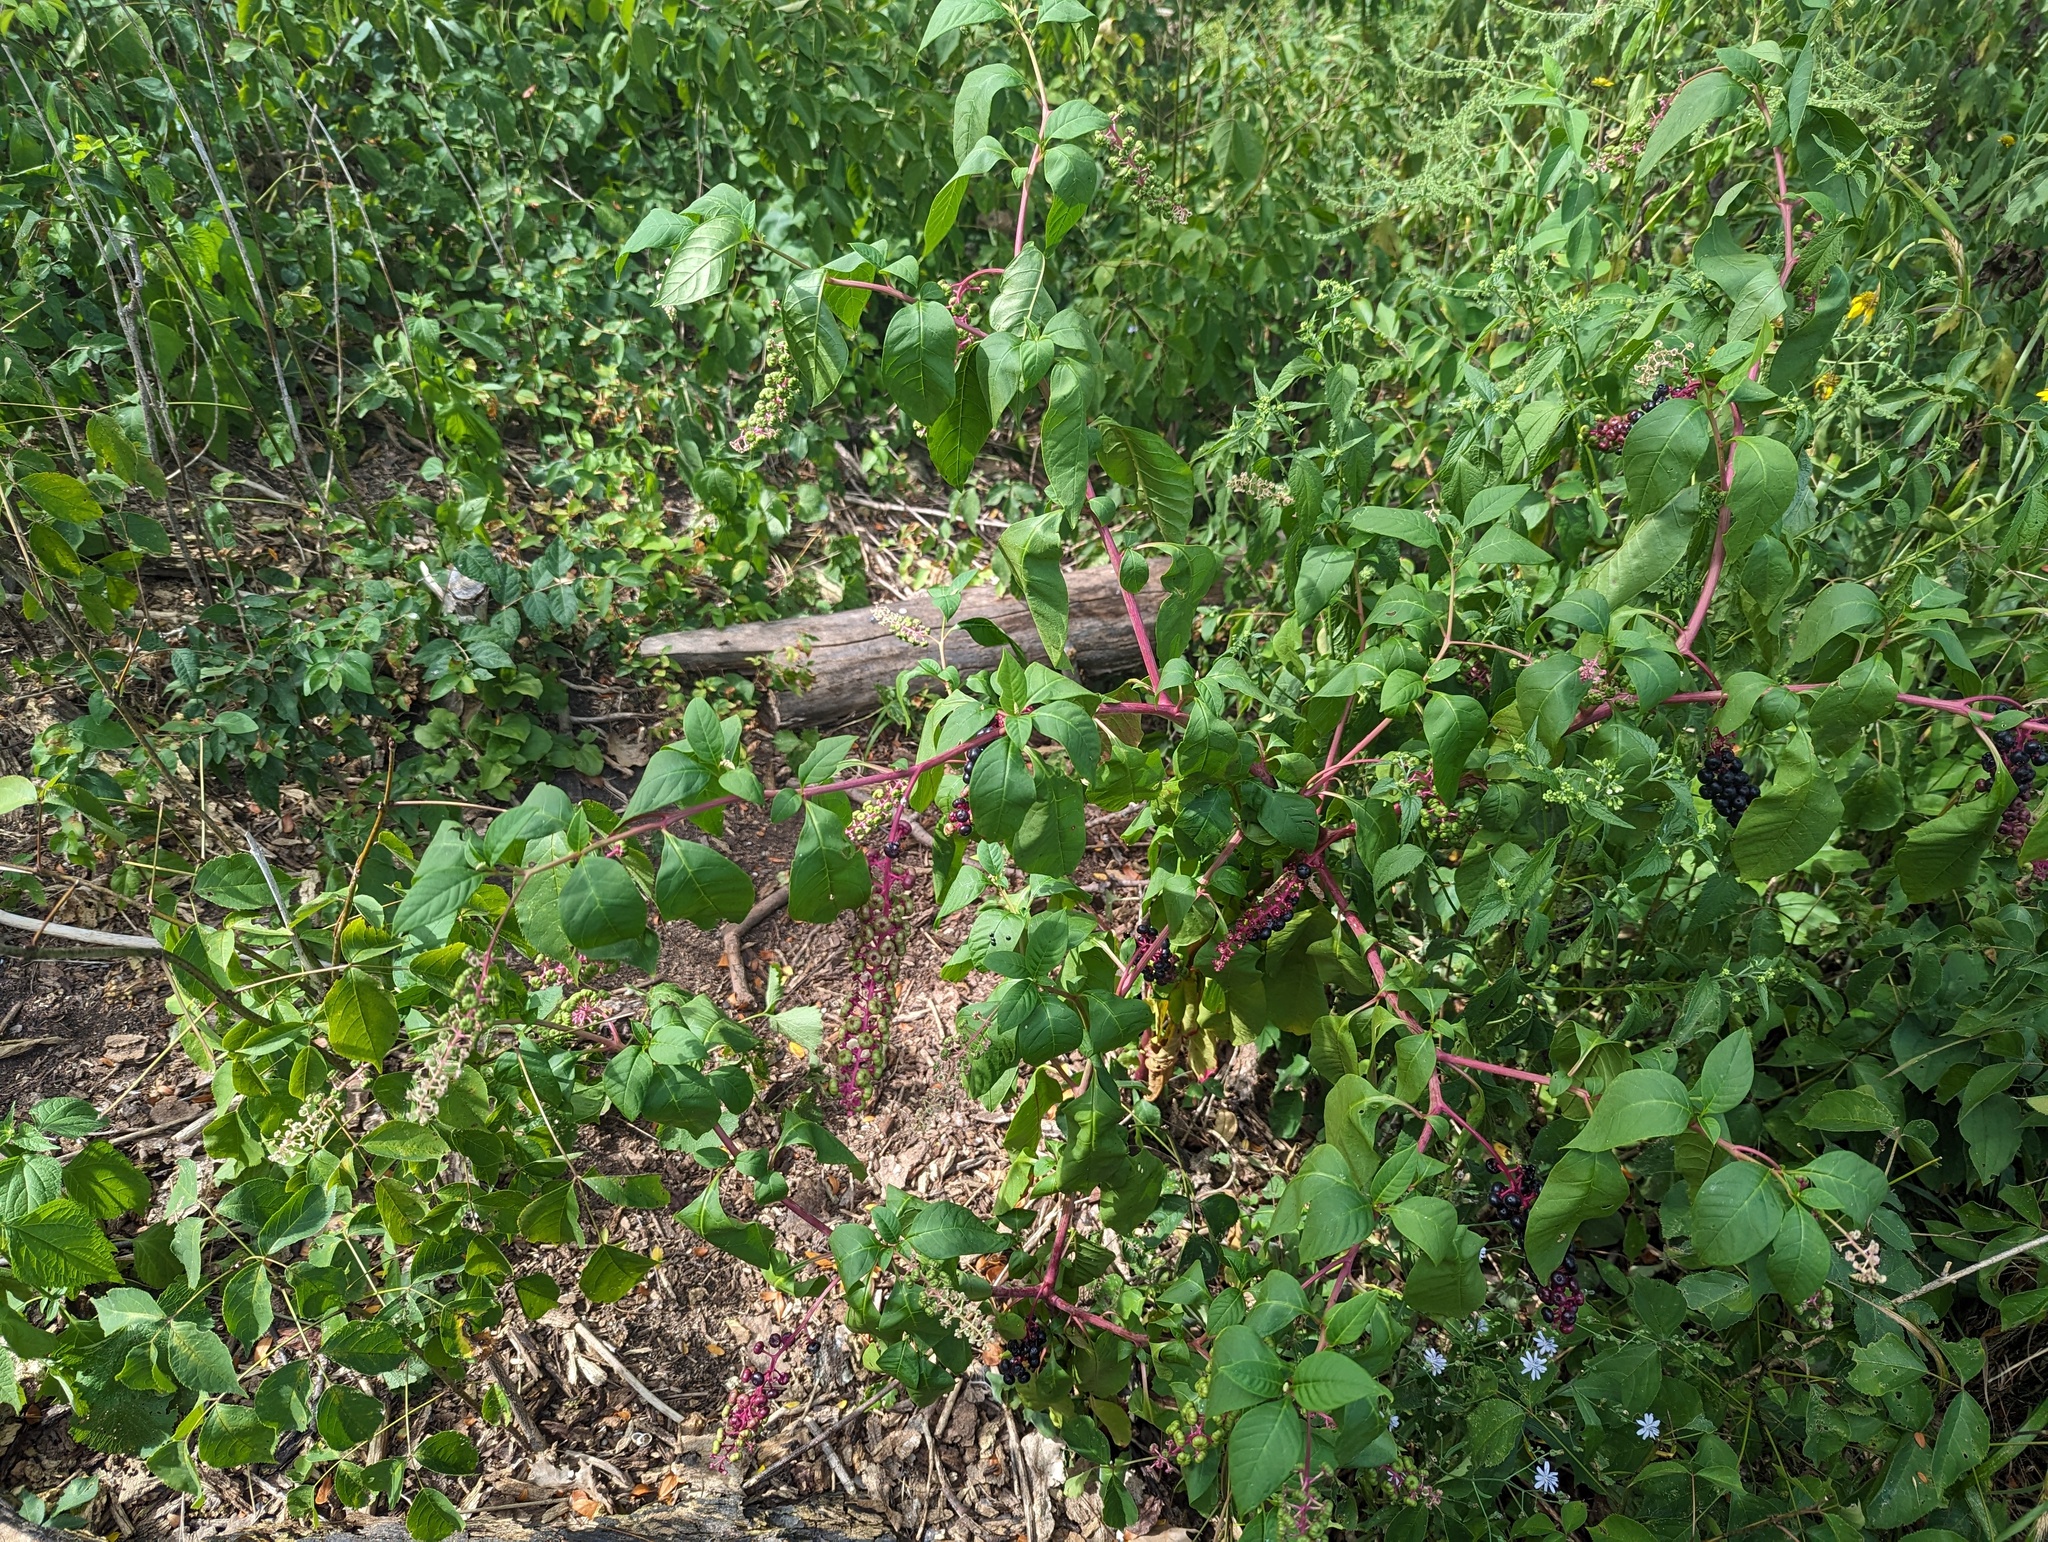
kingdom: Plantae
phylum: Tracheophyta
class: Magnoliopsida
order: Caryophyllales
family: Phytolaccaceae
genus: Phytolacca
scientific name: Phytolacca americana
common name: American pokeweed
